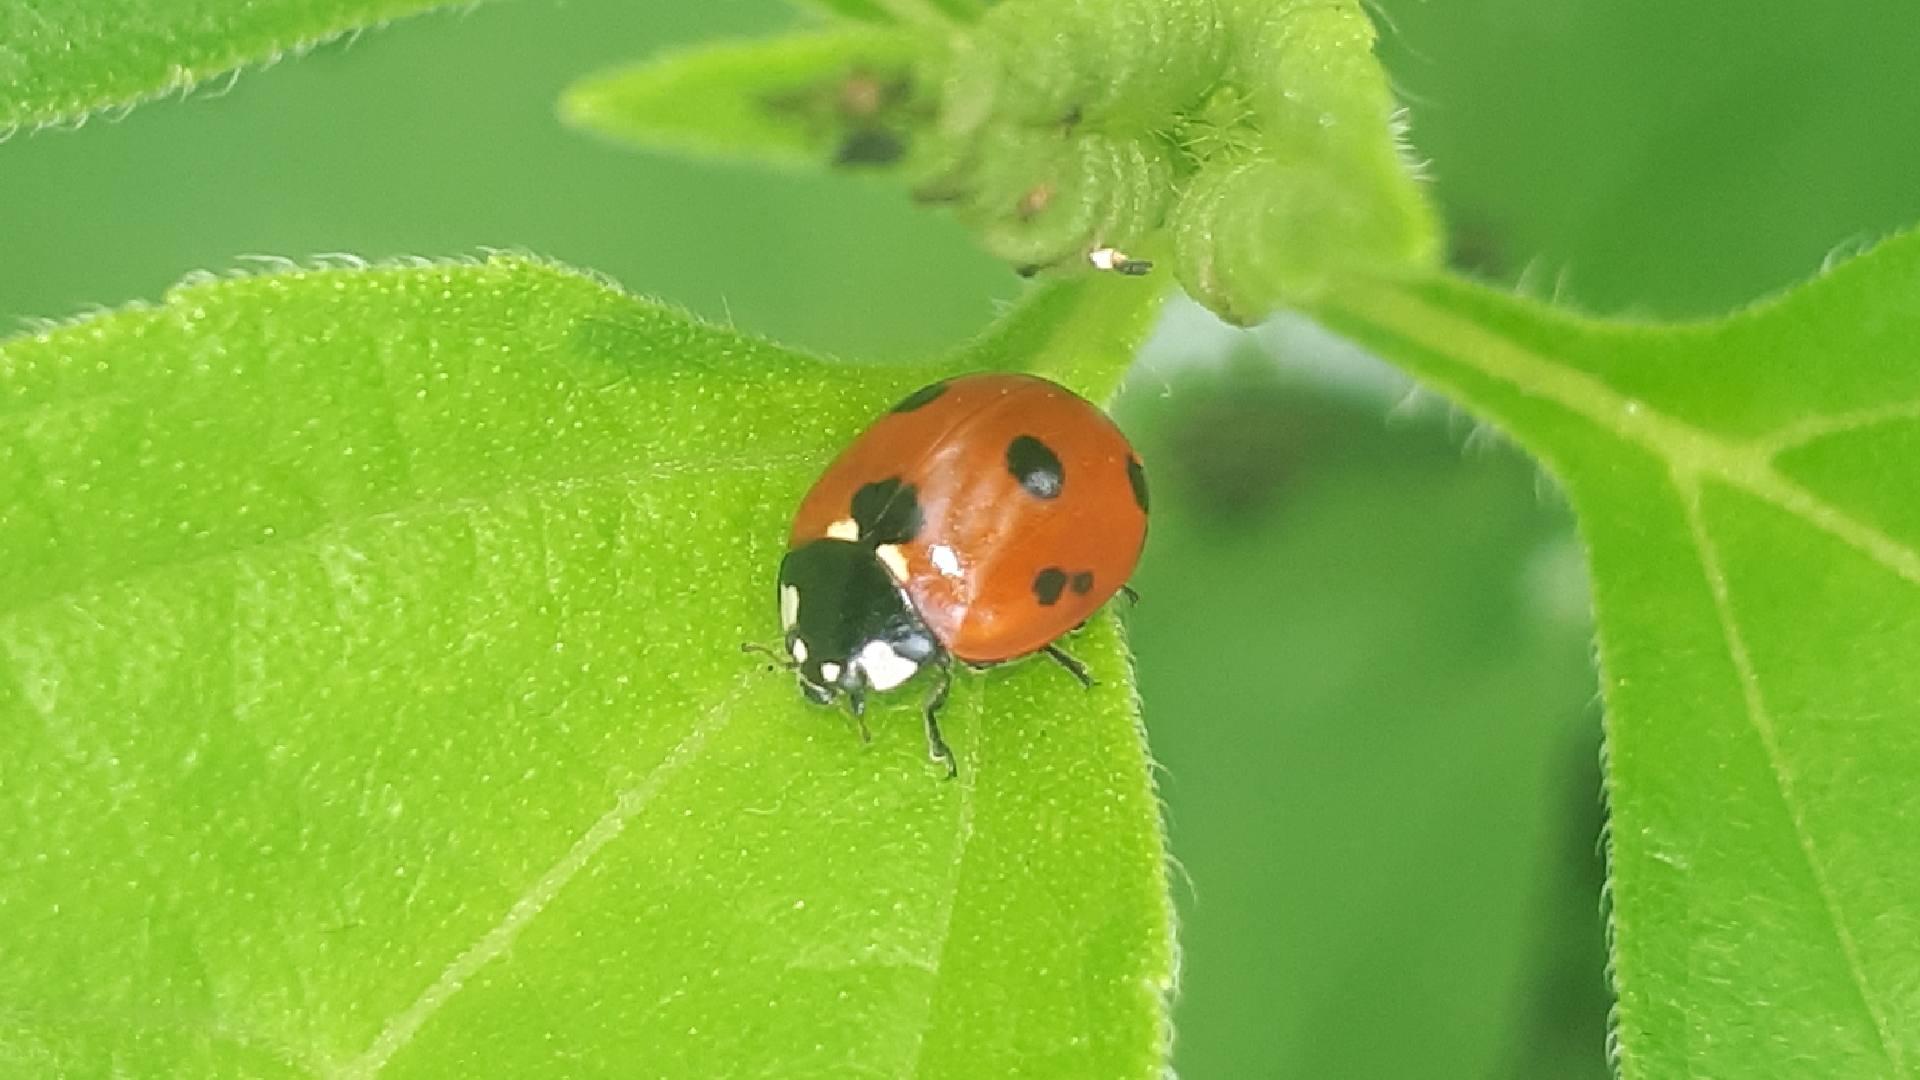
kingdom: Animalia
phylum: Arthropoda
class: Insecta
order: Coleoptera
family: Coccinellidae
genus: Coccinella
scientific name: Coccinella septempunctata
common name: Sevenspotted lady beetle
